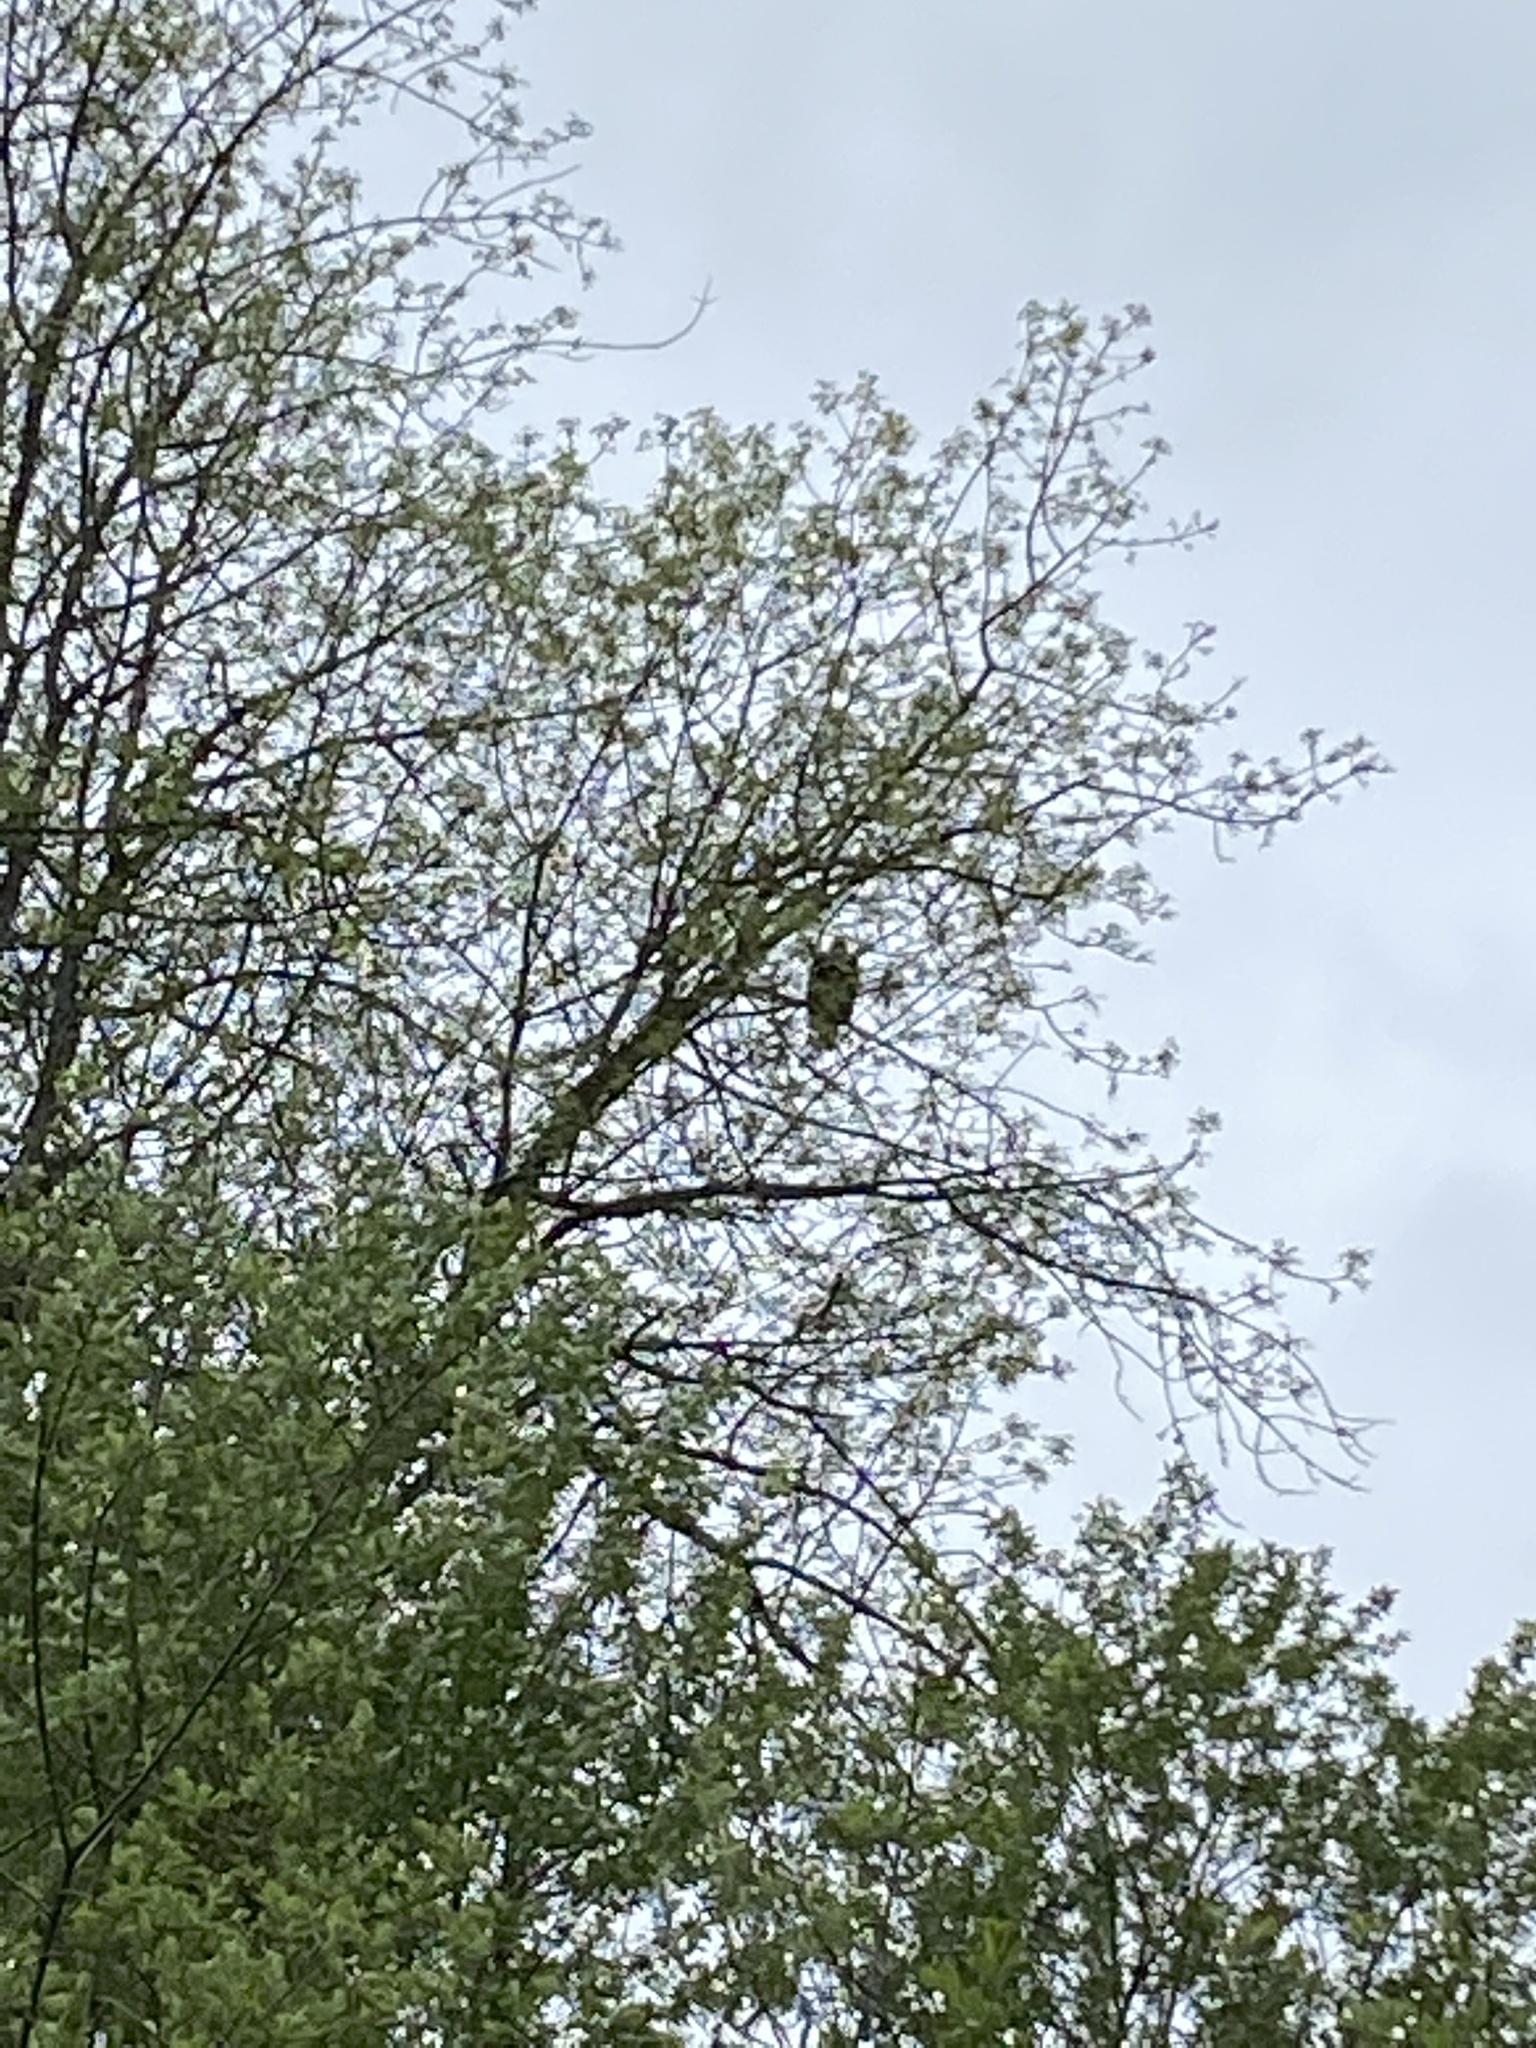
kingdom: Animalia
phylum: Chordata
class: Aves
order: Accipitriformes
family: Accipitridae
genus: Haliaeetus
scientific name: Haliaeetus leucocephalus
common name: Bald eagle
